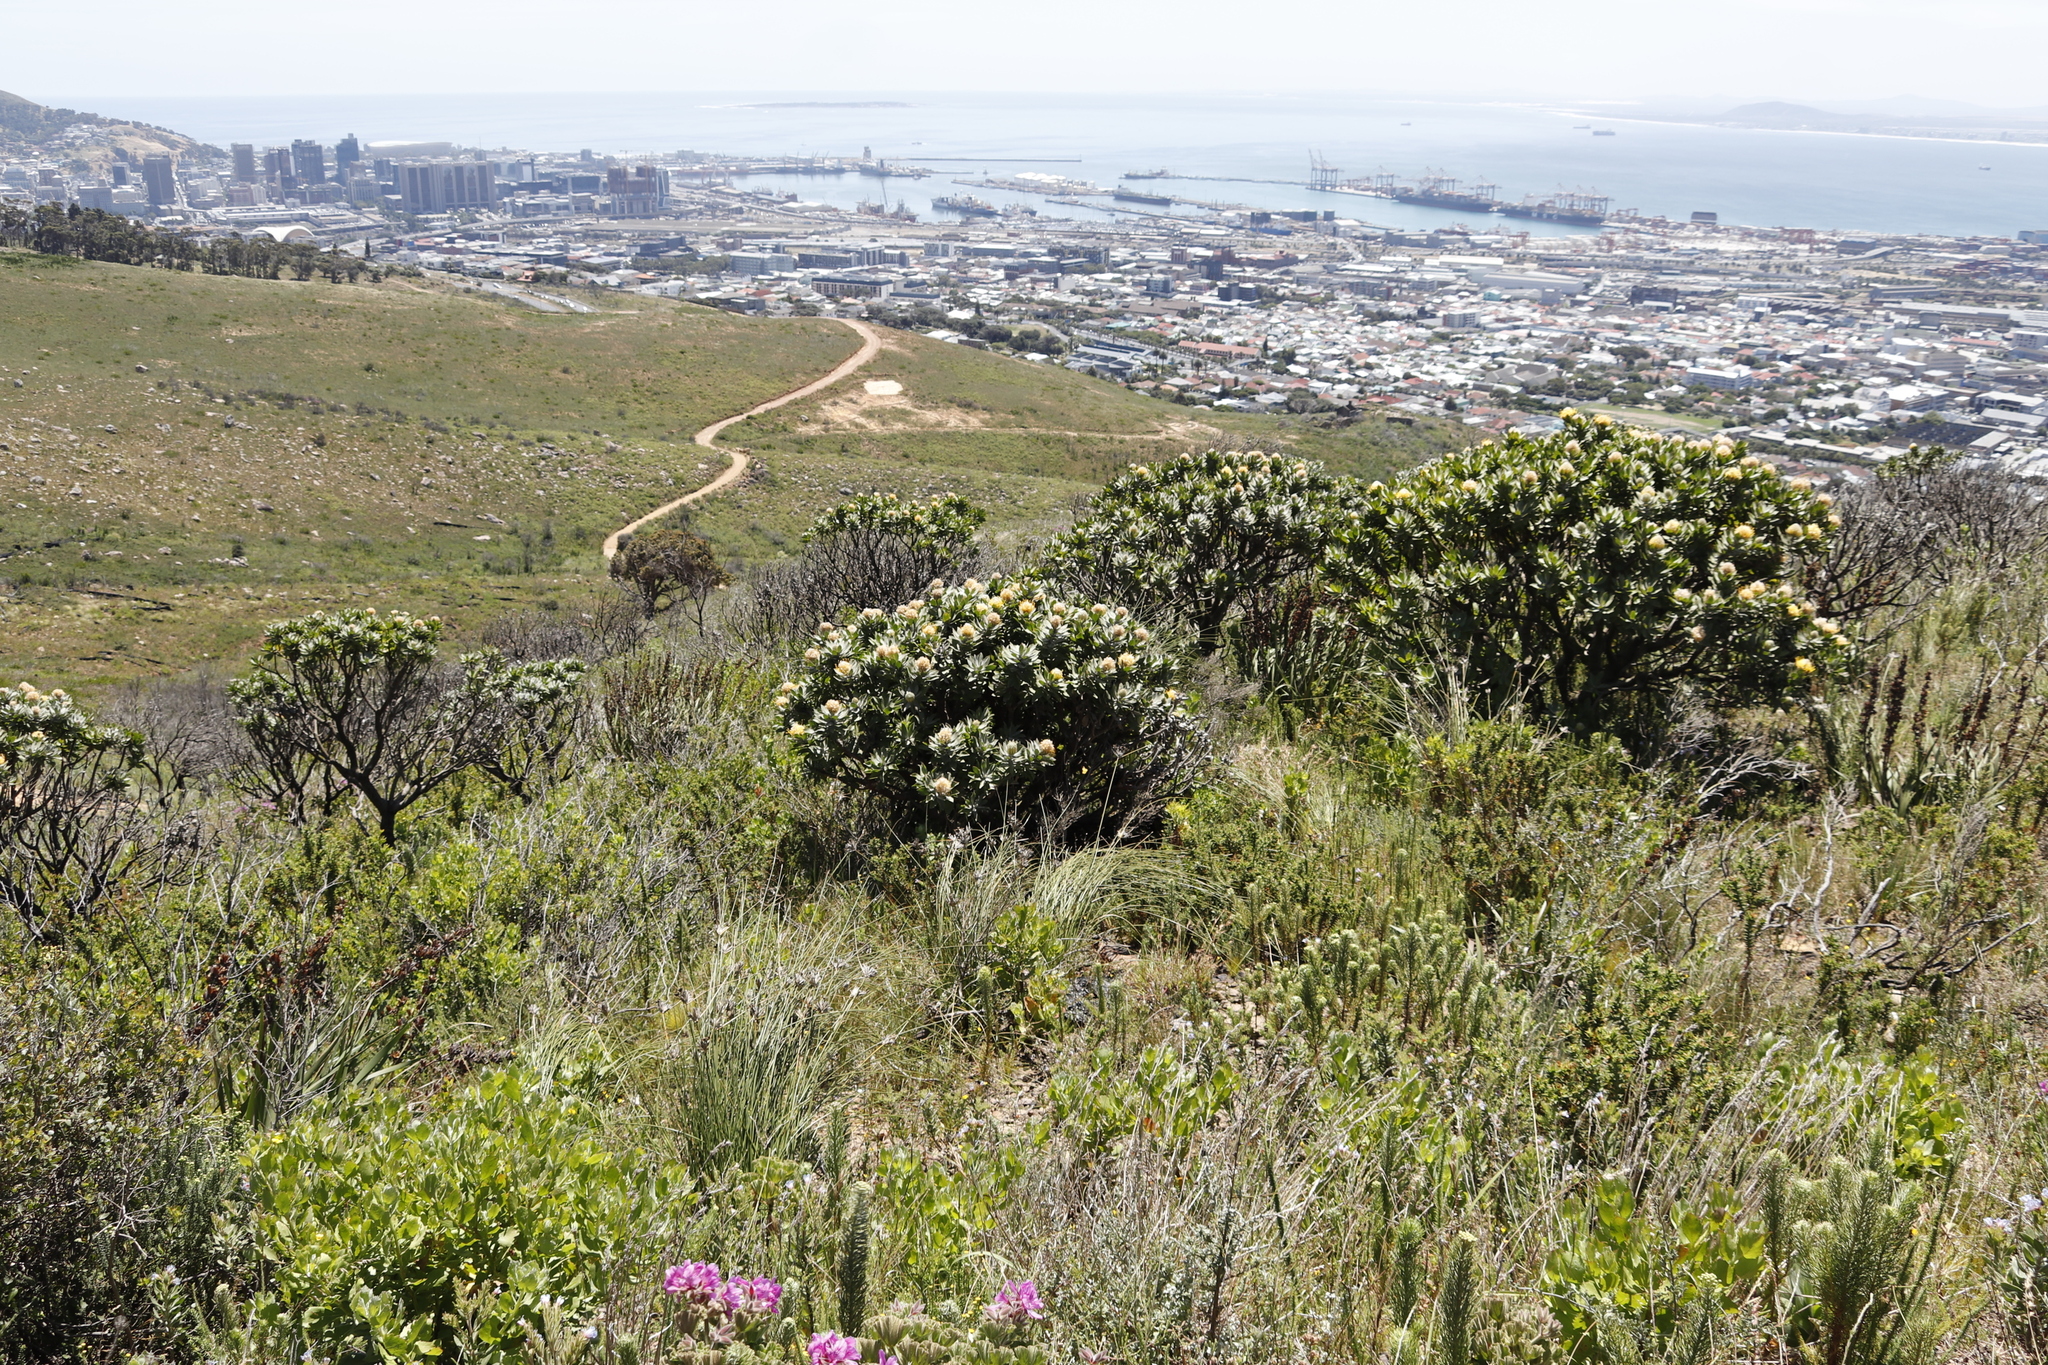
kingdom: Plantae
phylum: Tracheophyta
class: Magnoliopsida
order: Proteales
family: Proteaceae
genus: Leucospermum
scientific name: Leucospermum conocarpodendron
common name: Tree pincushion
